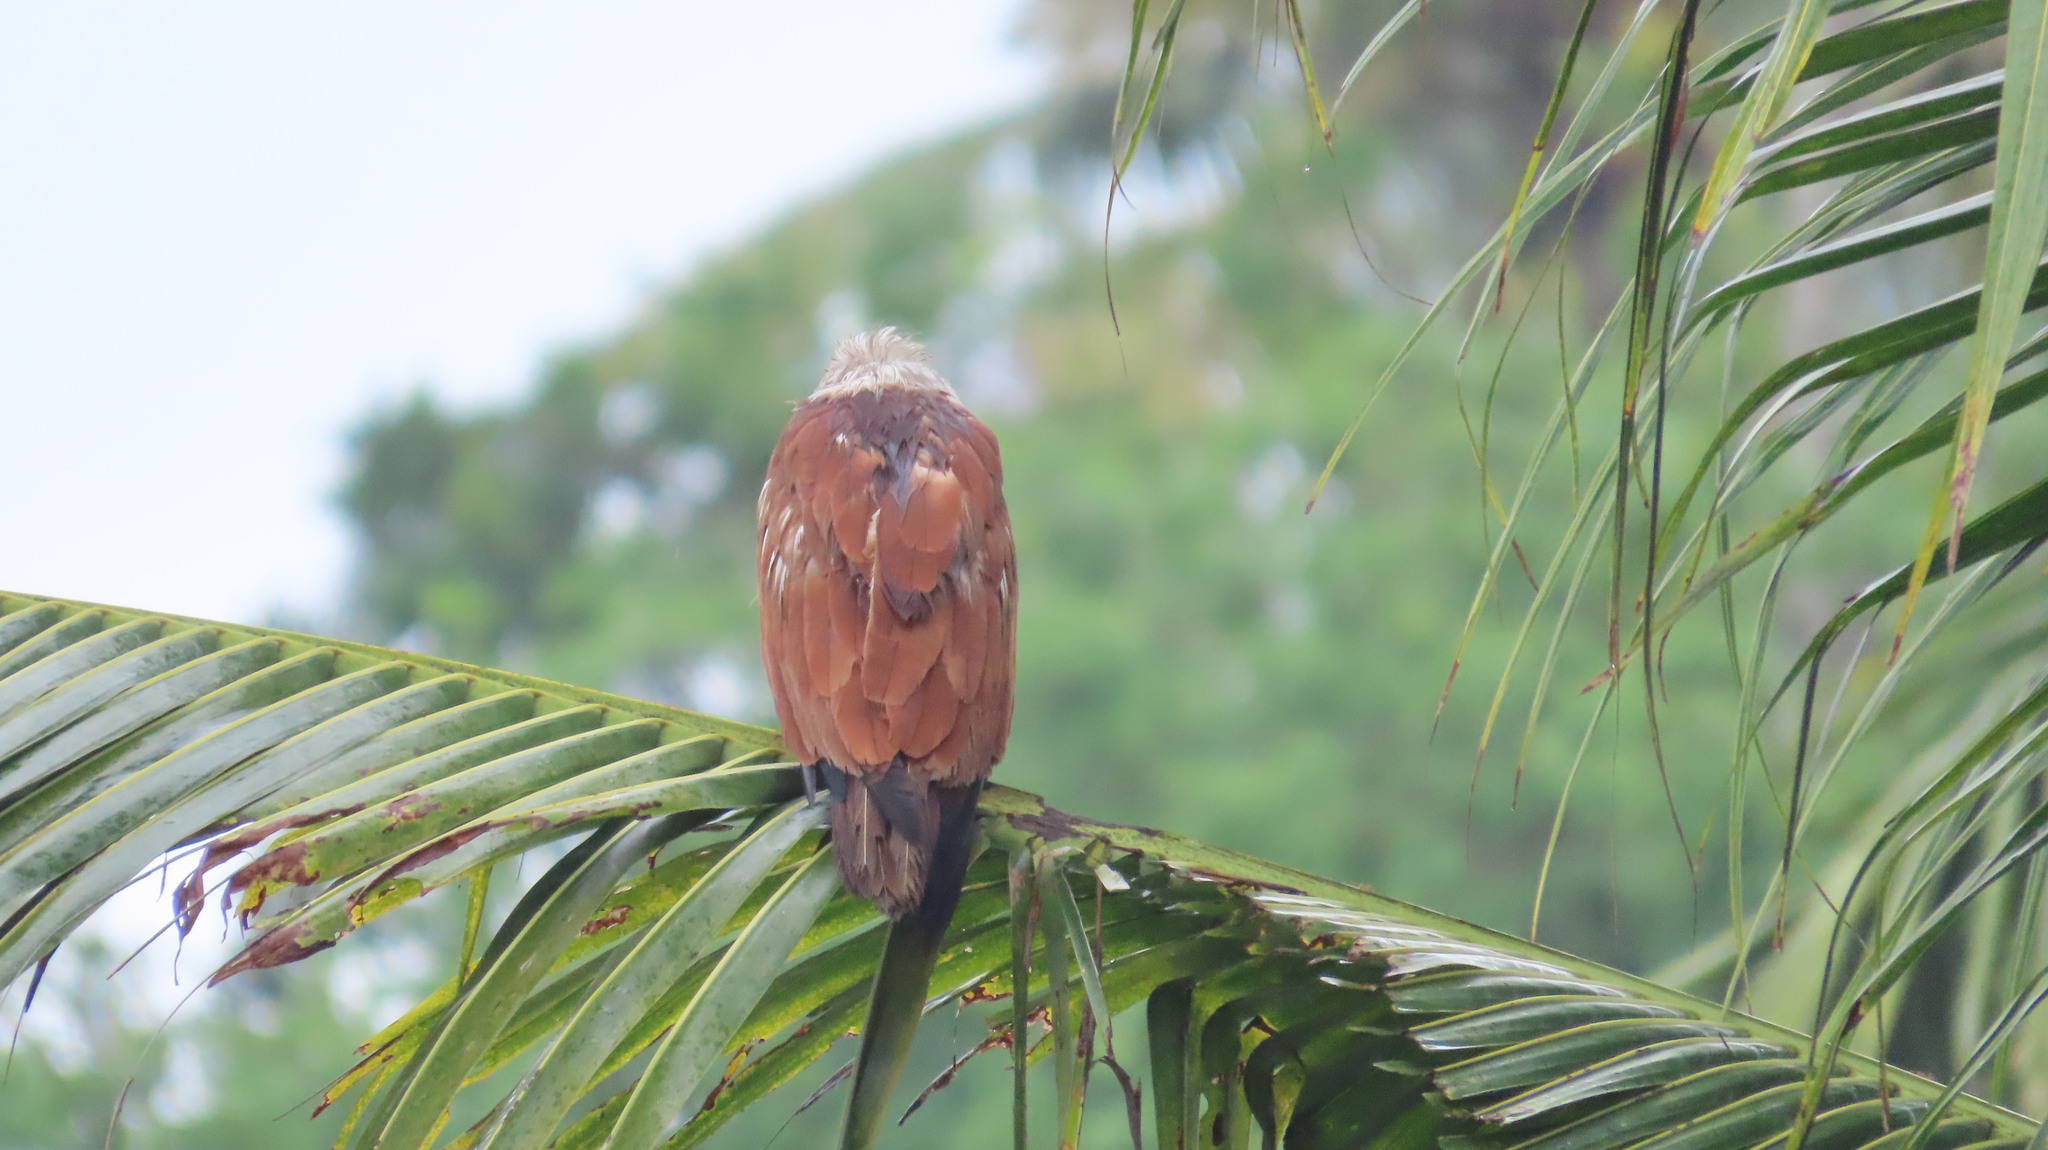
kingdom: Animalia
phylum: Chordata
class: Aves
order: Accipitriformes
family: Accipitridae
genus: Haliastur
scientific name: Haliastur indus
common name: Brahminy kite
